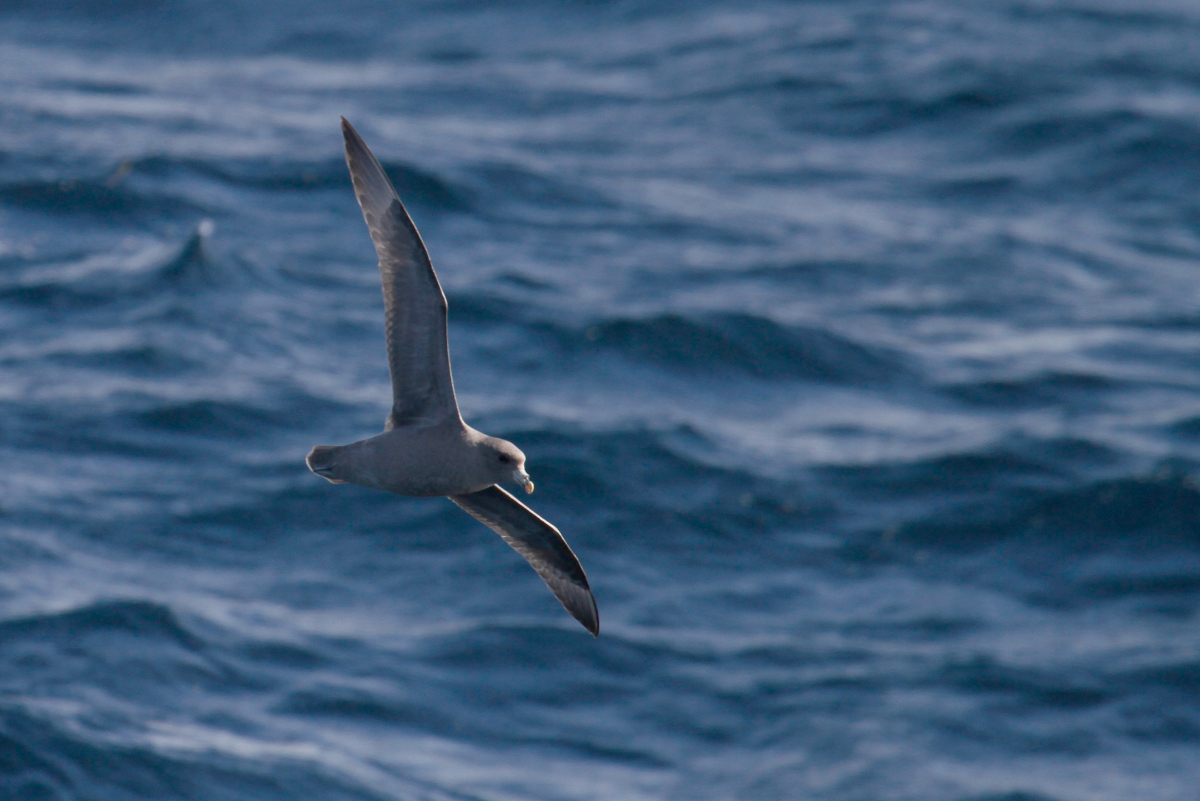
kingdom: Animalia
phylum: Chordata
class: Aves
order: Procellariiformes
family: Procellariidae
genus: Fulmarus
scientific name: Fulmarus glacialis
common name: Northern fulmar
